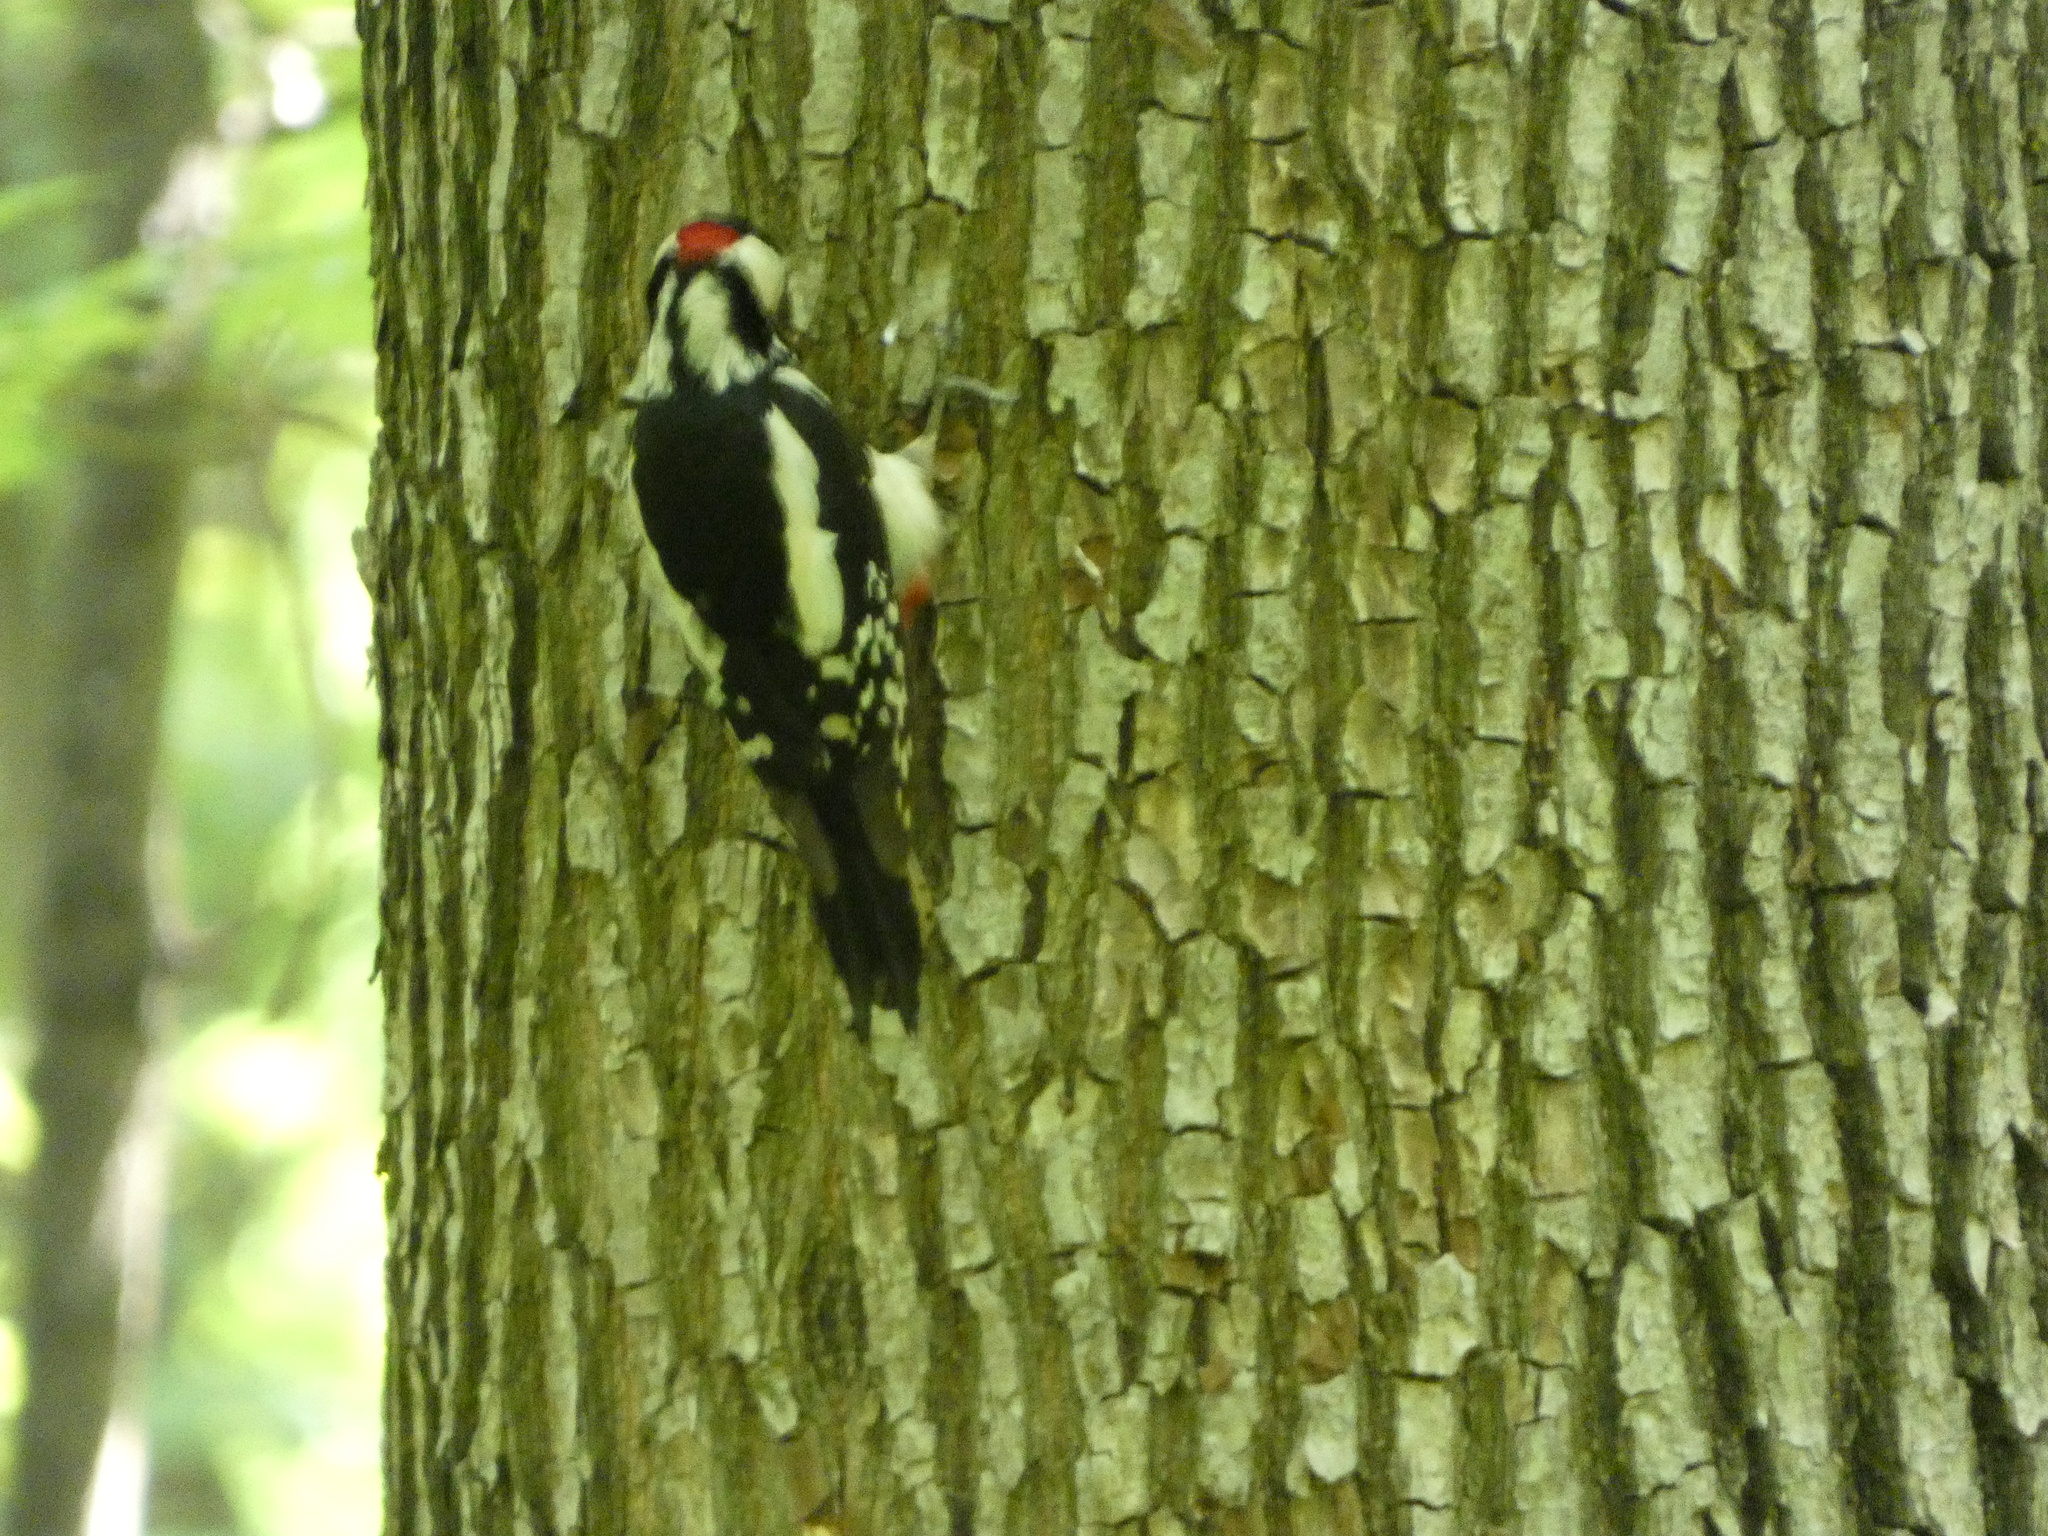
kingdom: Animalia
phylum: Chordata
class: Aves
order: Piciformes
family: Picidae
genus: Dendrocopos
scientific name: Dendrocopos major
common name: Great spotted woodpecker
